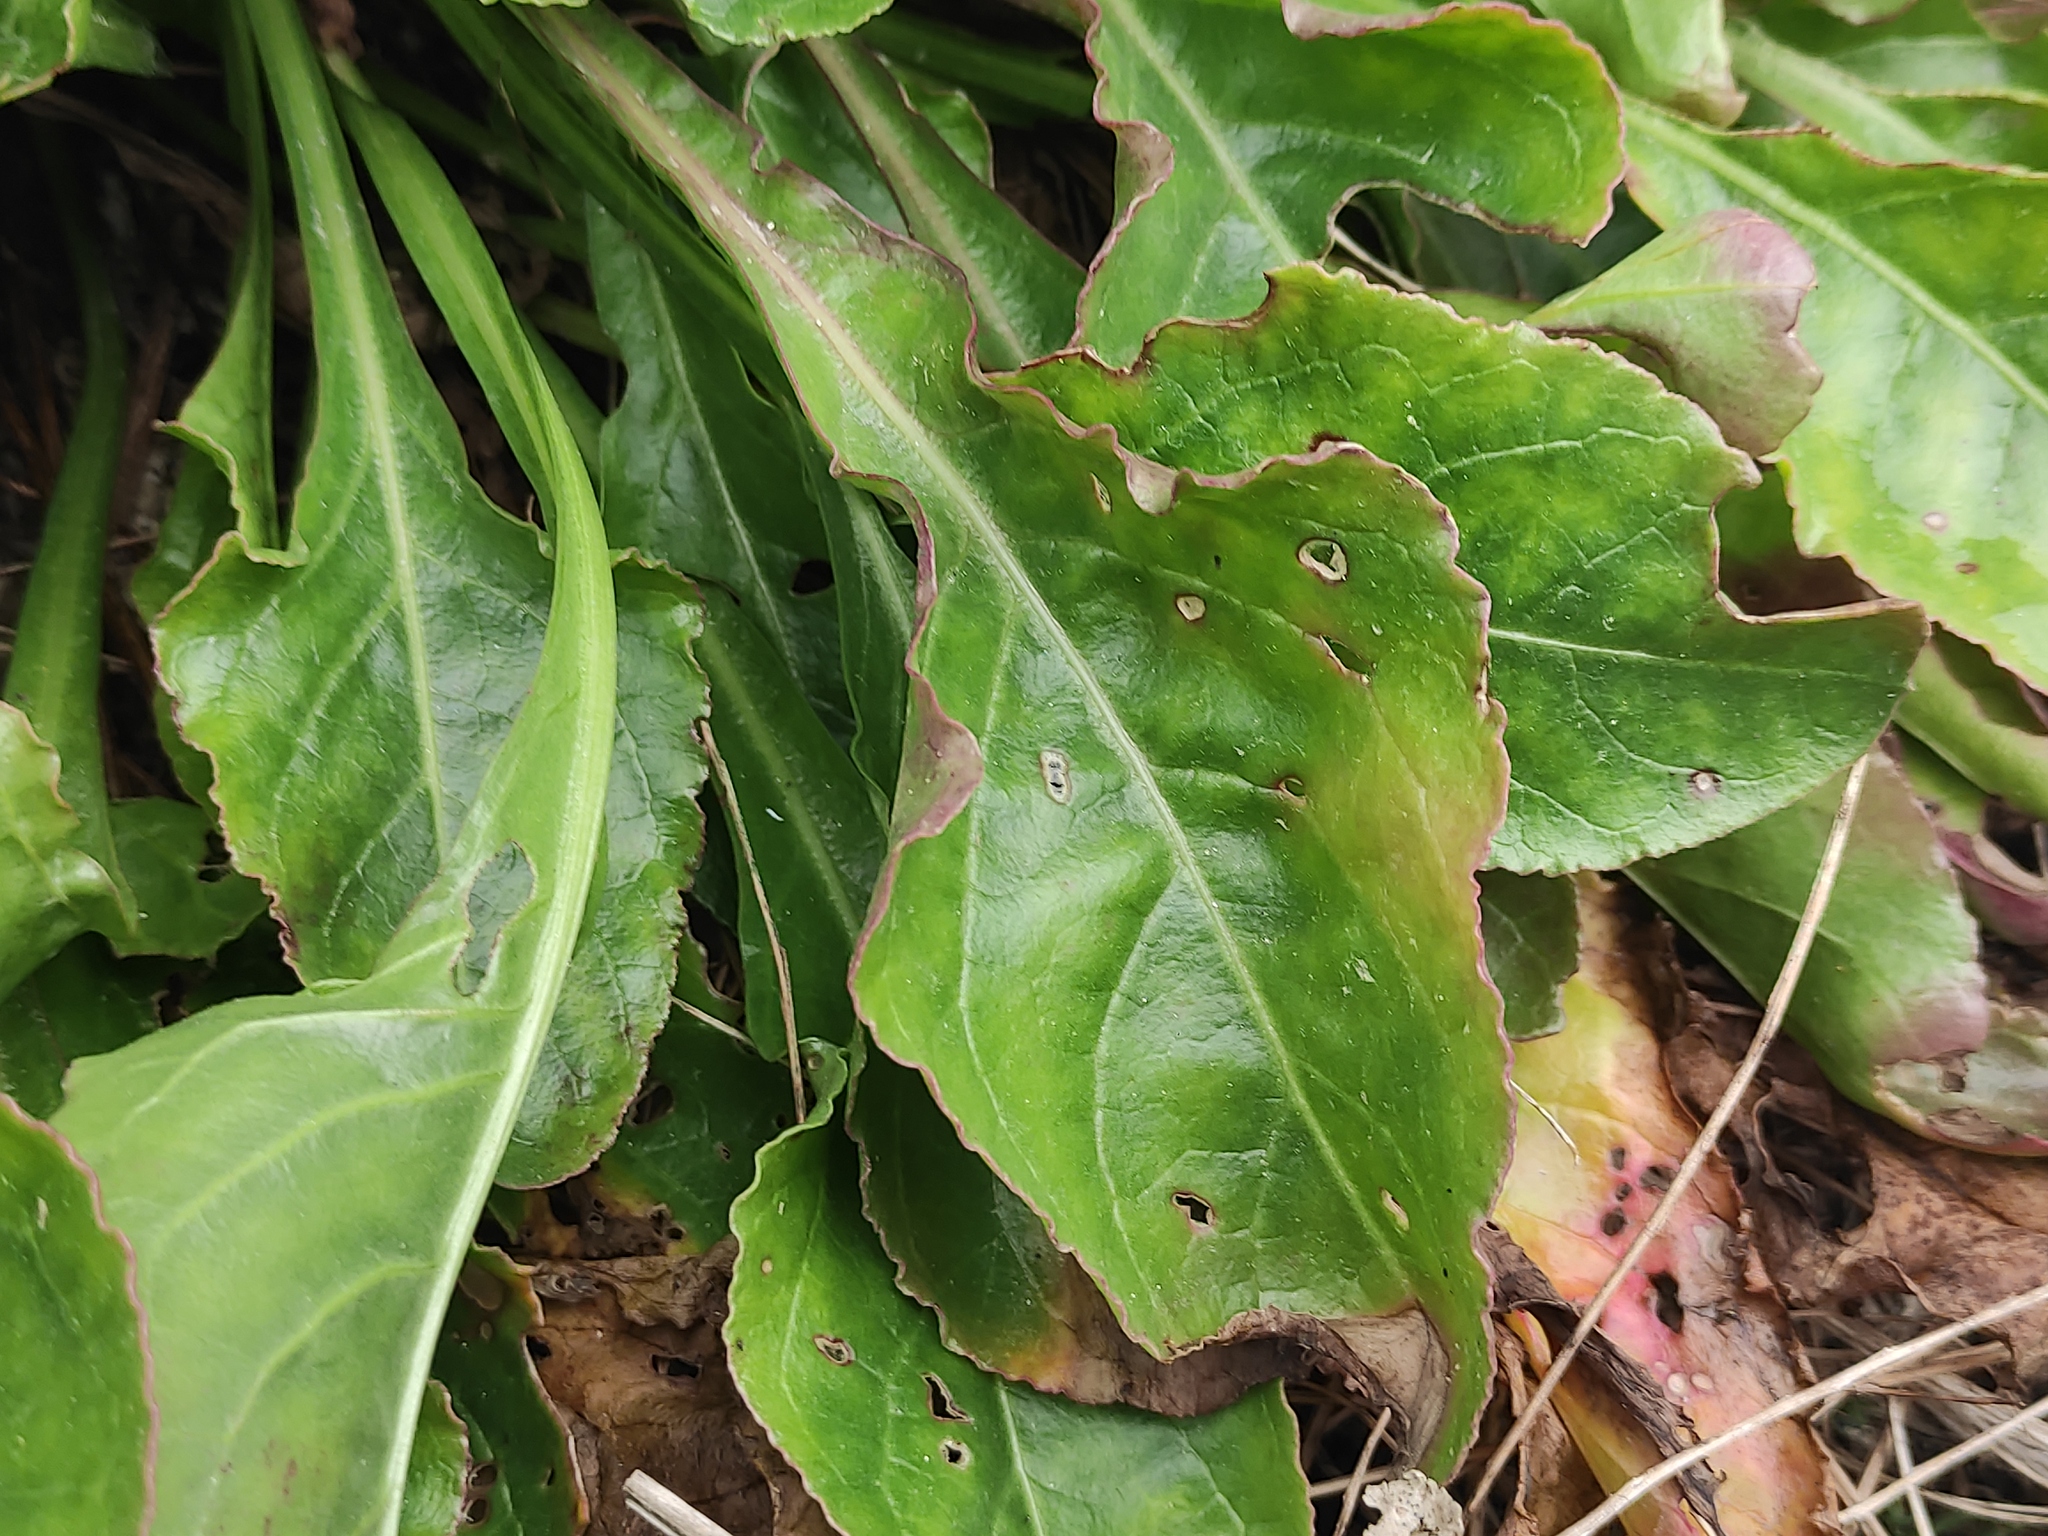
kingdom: Plantae
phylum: Tracheophyta
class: Magnoliopsida
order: Caryophyllales
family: Amaranthaceae
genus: Beta
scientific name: Beta vulgaris
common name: Beet
